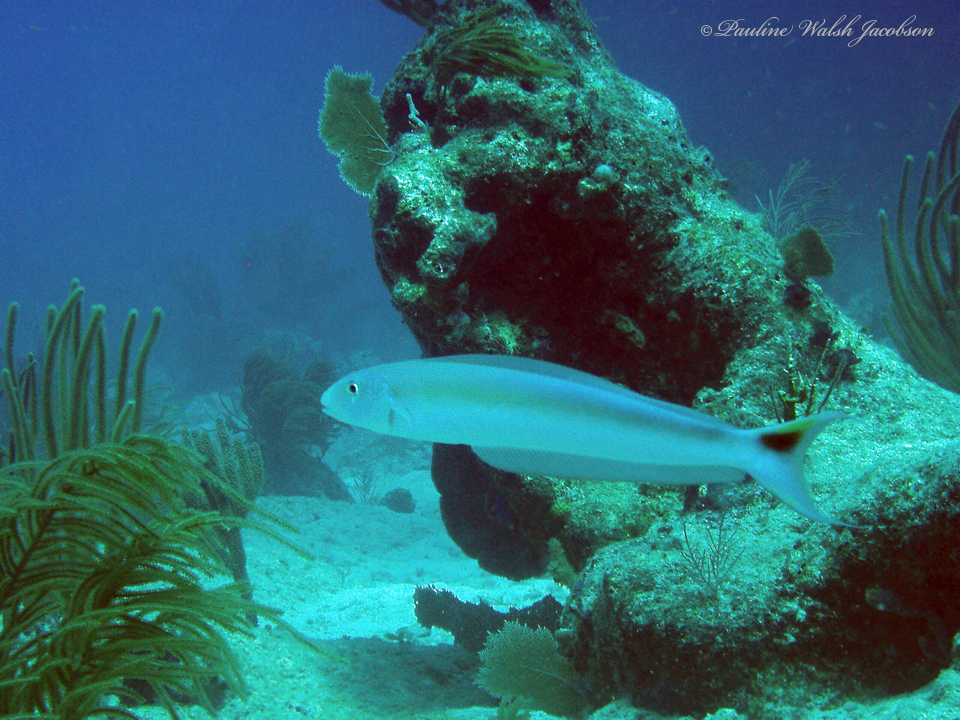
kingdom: Animalia
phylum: Chordata
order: Perciformes
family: Malacanthidae
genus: Malacanthus
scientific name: Malacanthus plumieri
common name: Sand tilefish
